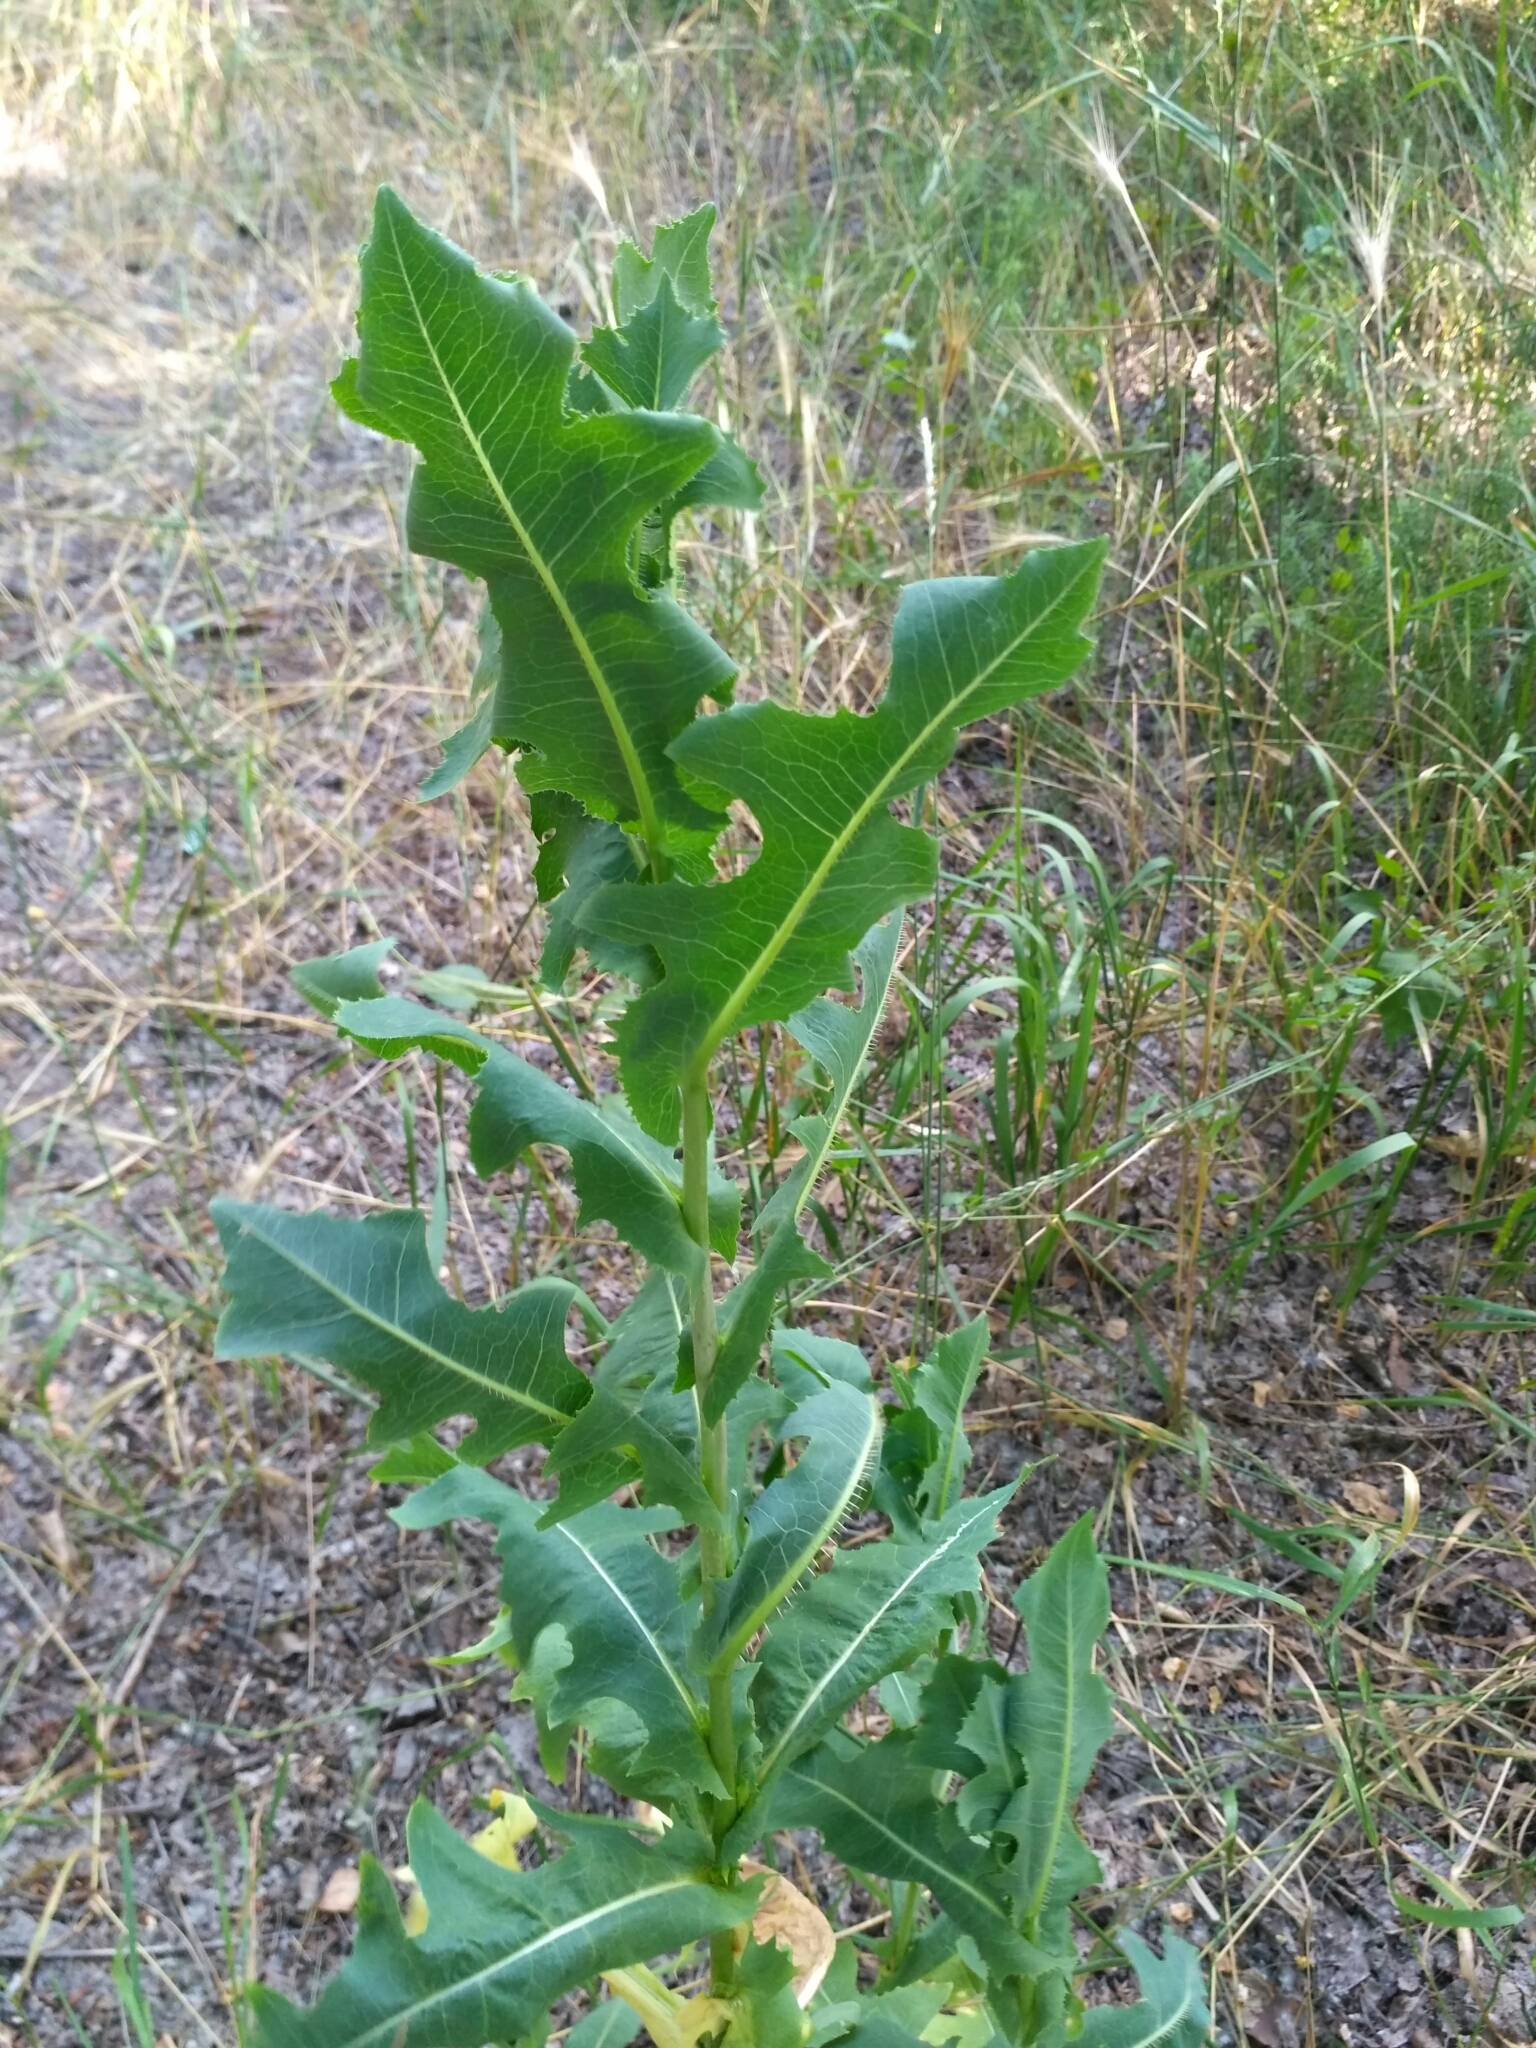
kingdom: Plantae
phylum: Tracheophyta
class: Magnoliopsida
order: Asterales
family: Asteraceae
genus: Lactuca
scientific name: Lactuca serriola
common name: Prickly lettuce
